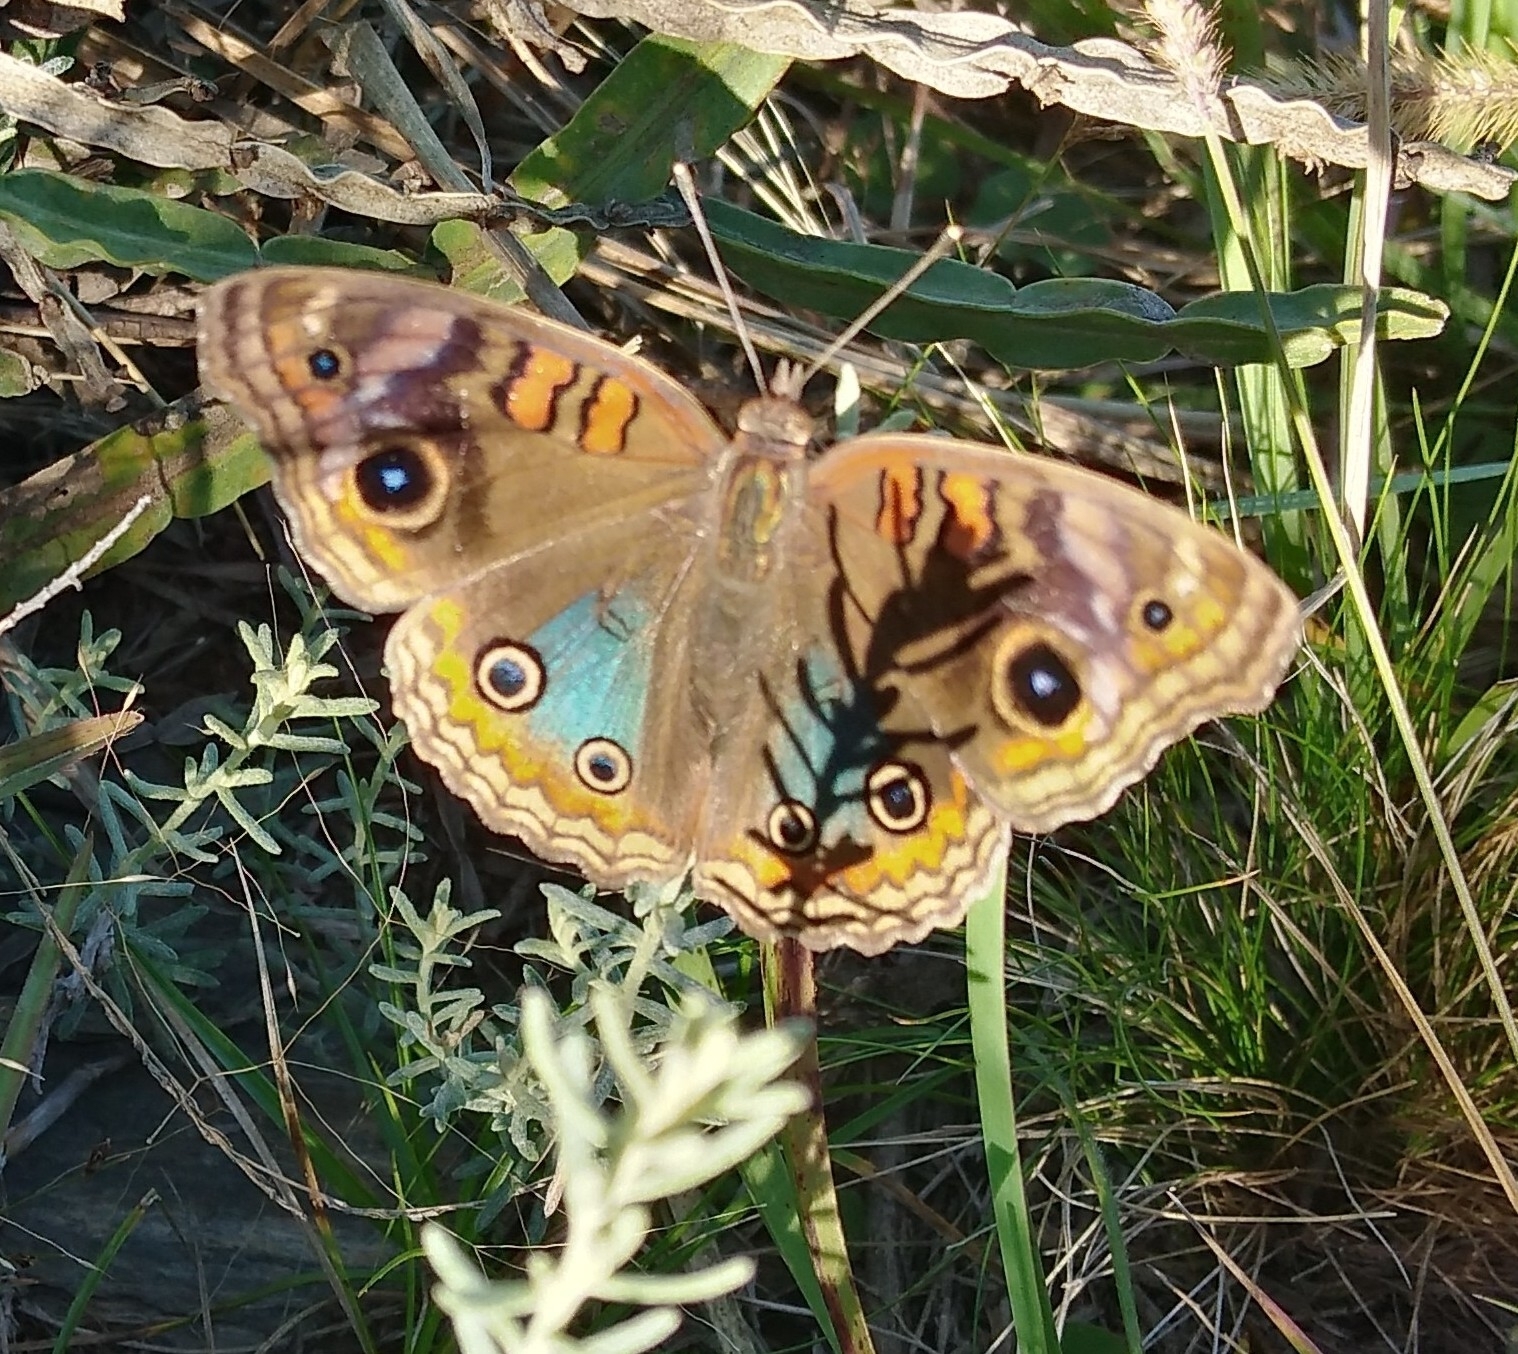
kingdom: Animalia
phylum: Arthropoda
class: Insecta
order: Lepidoptera
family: Nymphalidae
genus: Junonia
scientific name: Junonia lavinia
